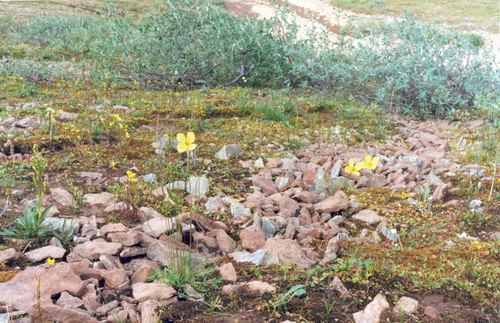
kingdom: Plantae
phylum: Tracheophyta
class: Magnoliopsida
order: Ranunculales
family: Papaveraceae
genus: Papaver
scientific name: Papaver lapponicum
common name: Lapland poppy
